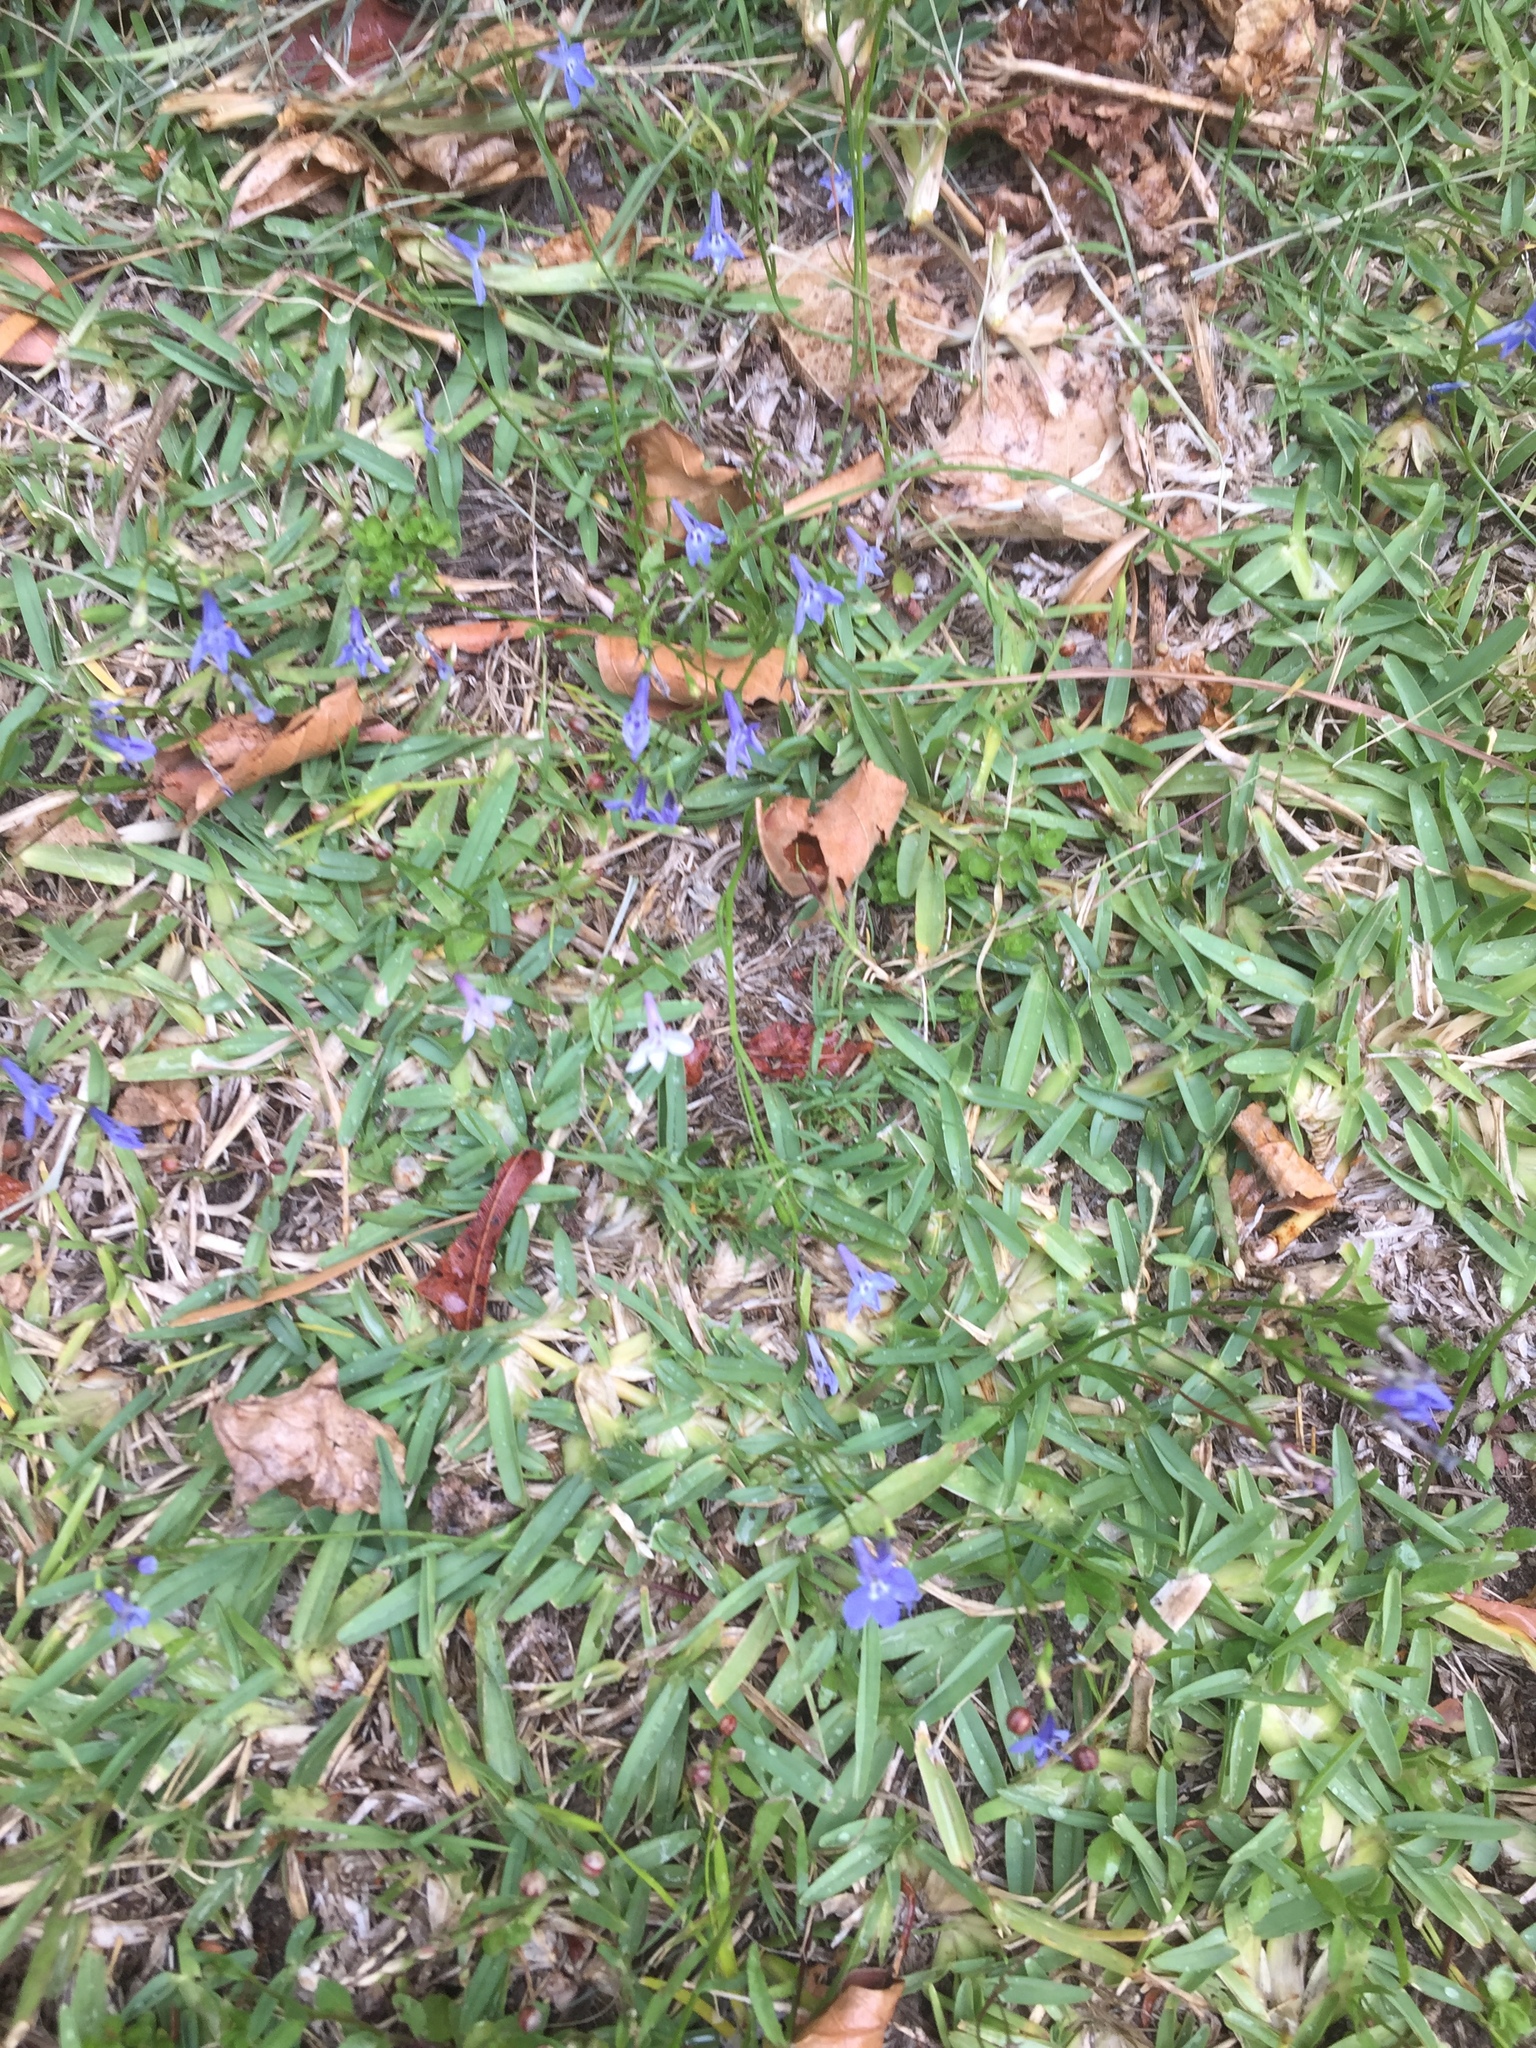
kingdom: Plantae
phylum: Tracheophyta
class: Magnoliopsida
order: Asterales
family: Campanulaceae
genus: Lobelia
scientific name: Lobelia erinus
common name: Edging lobelia
